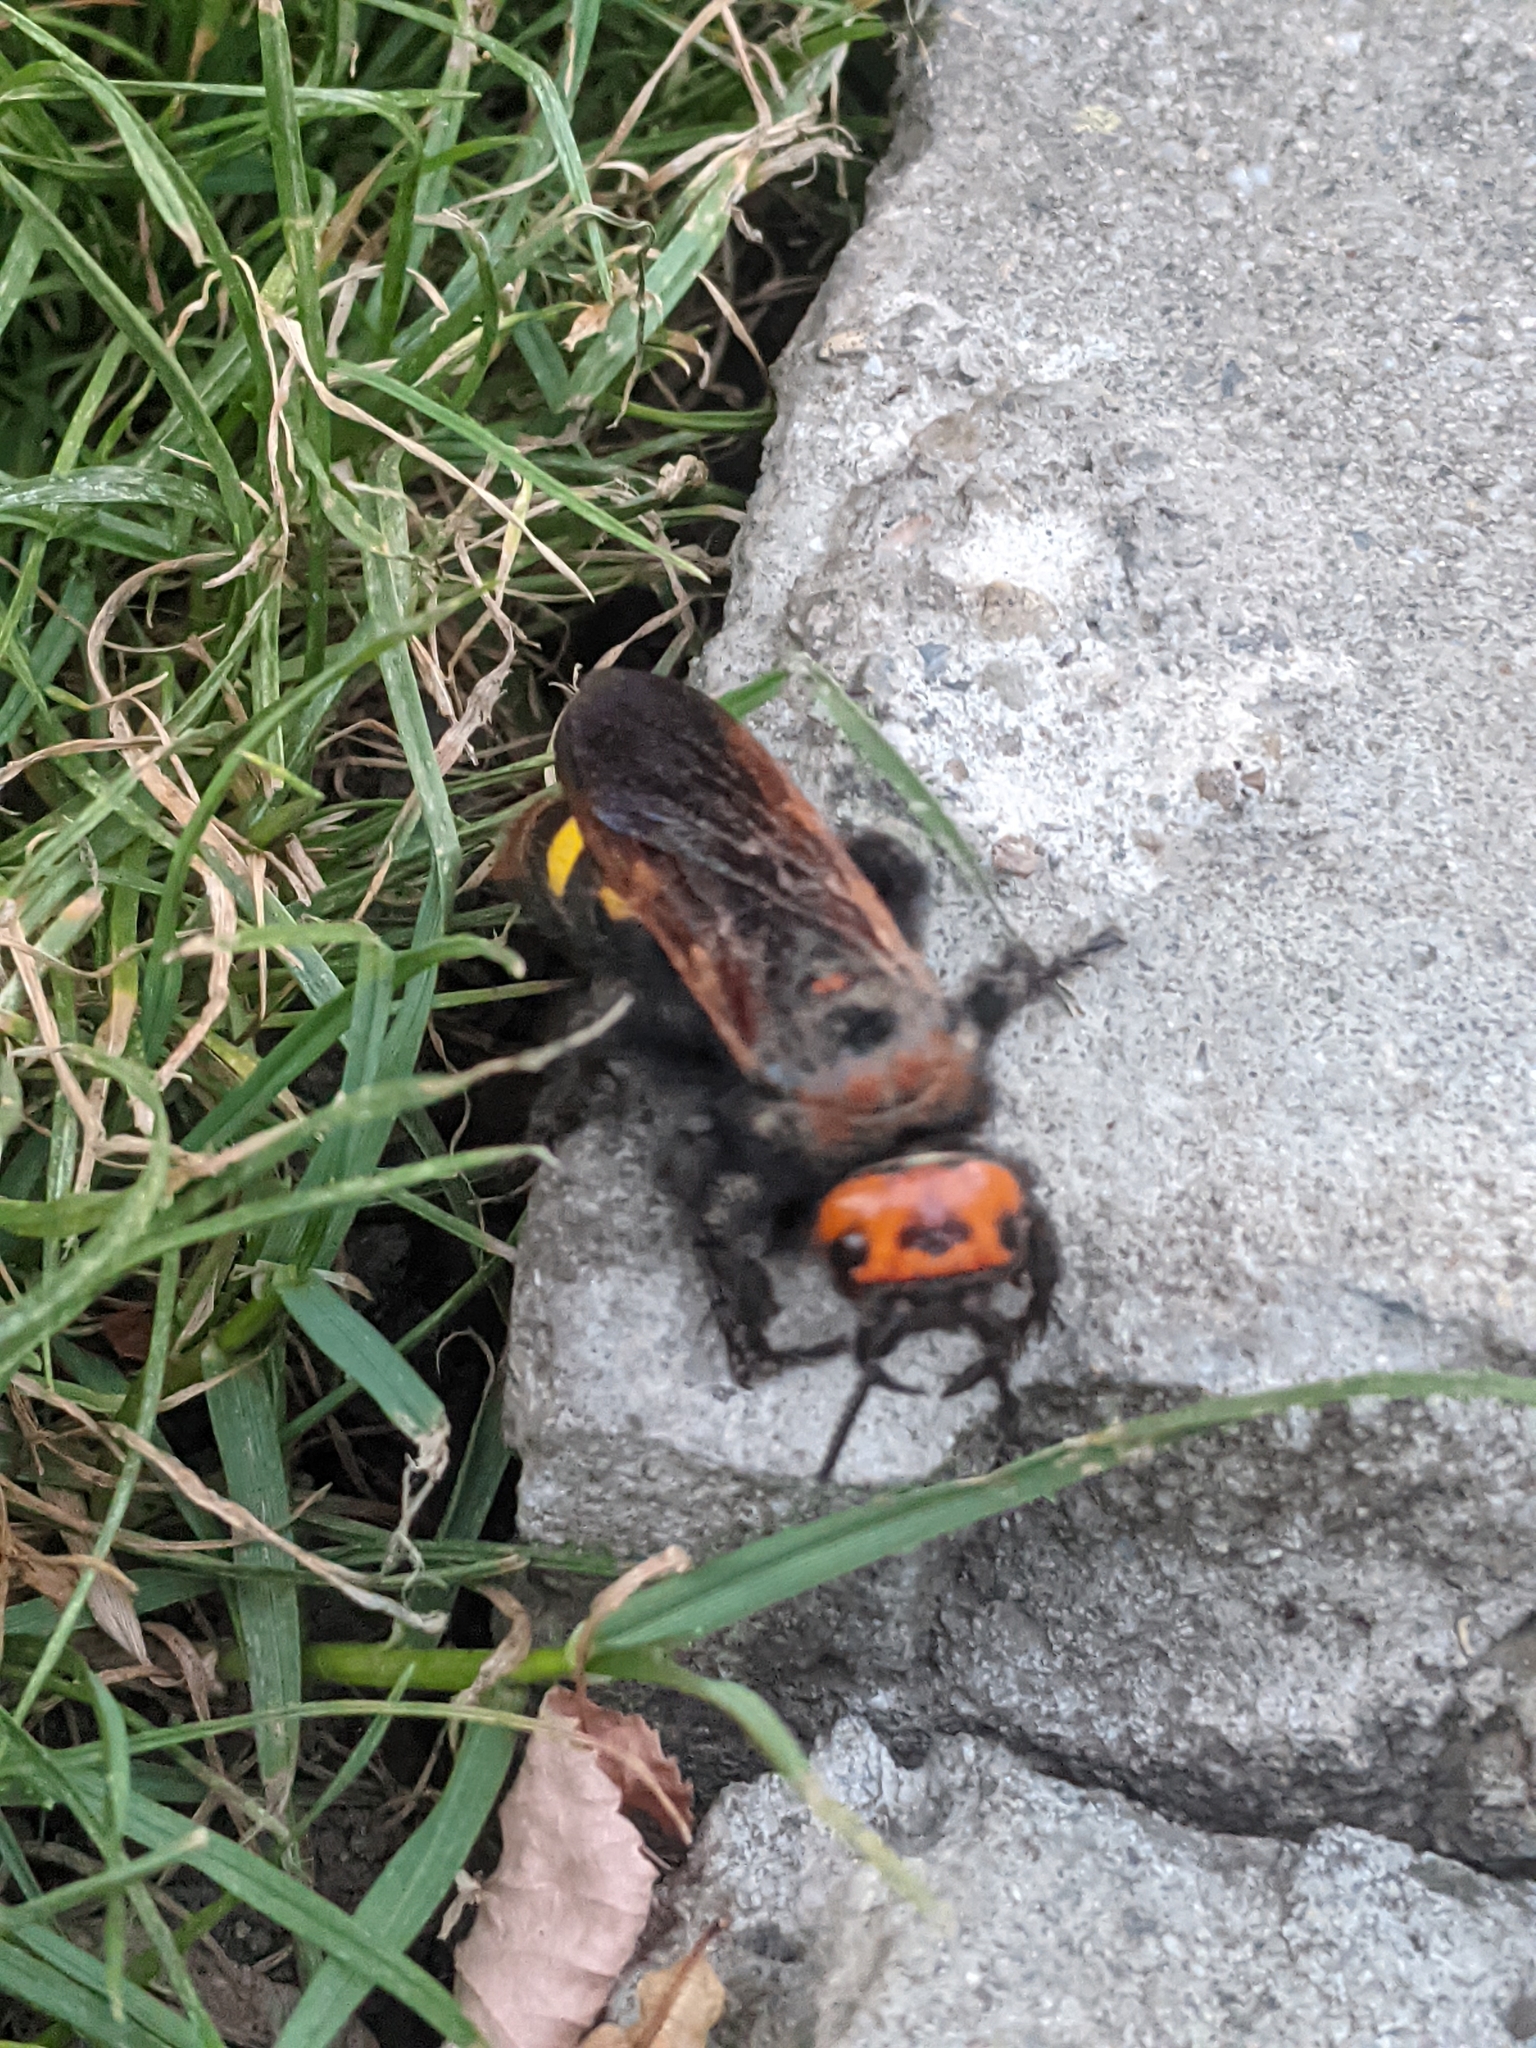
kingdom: Animalia
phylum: Arthropoda
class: Insecta
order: Hymenoptera
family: Scoliidae
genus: Megascolia
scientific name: Megascolia maculata
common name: Mammoth wasp
